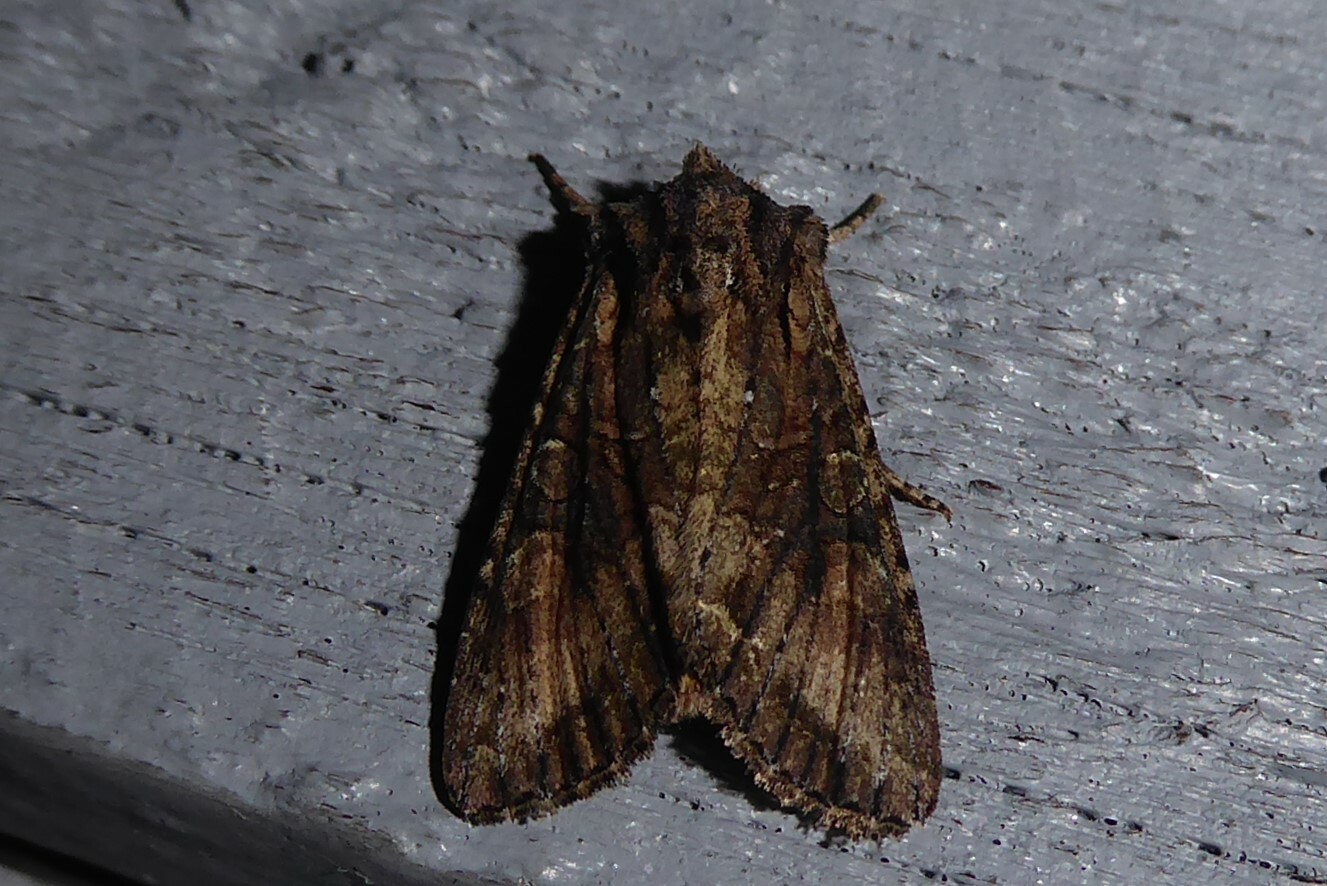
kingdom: Animalia
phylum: Arthropoda
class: Insecta
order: Lepidoptera
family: Noctuidae
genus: Ichneutica
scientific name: Ichneutica mutans
